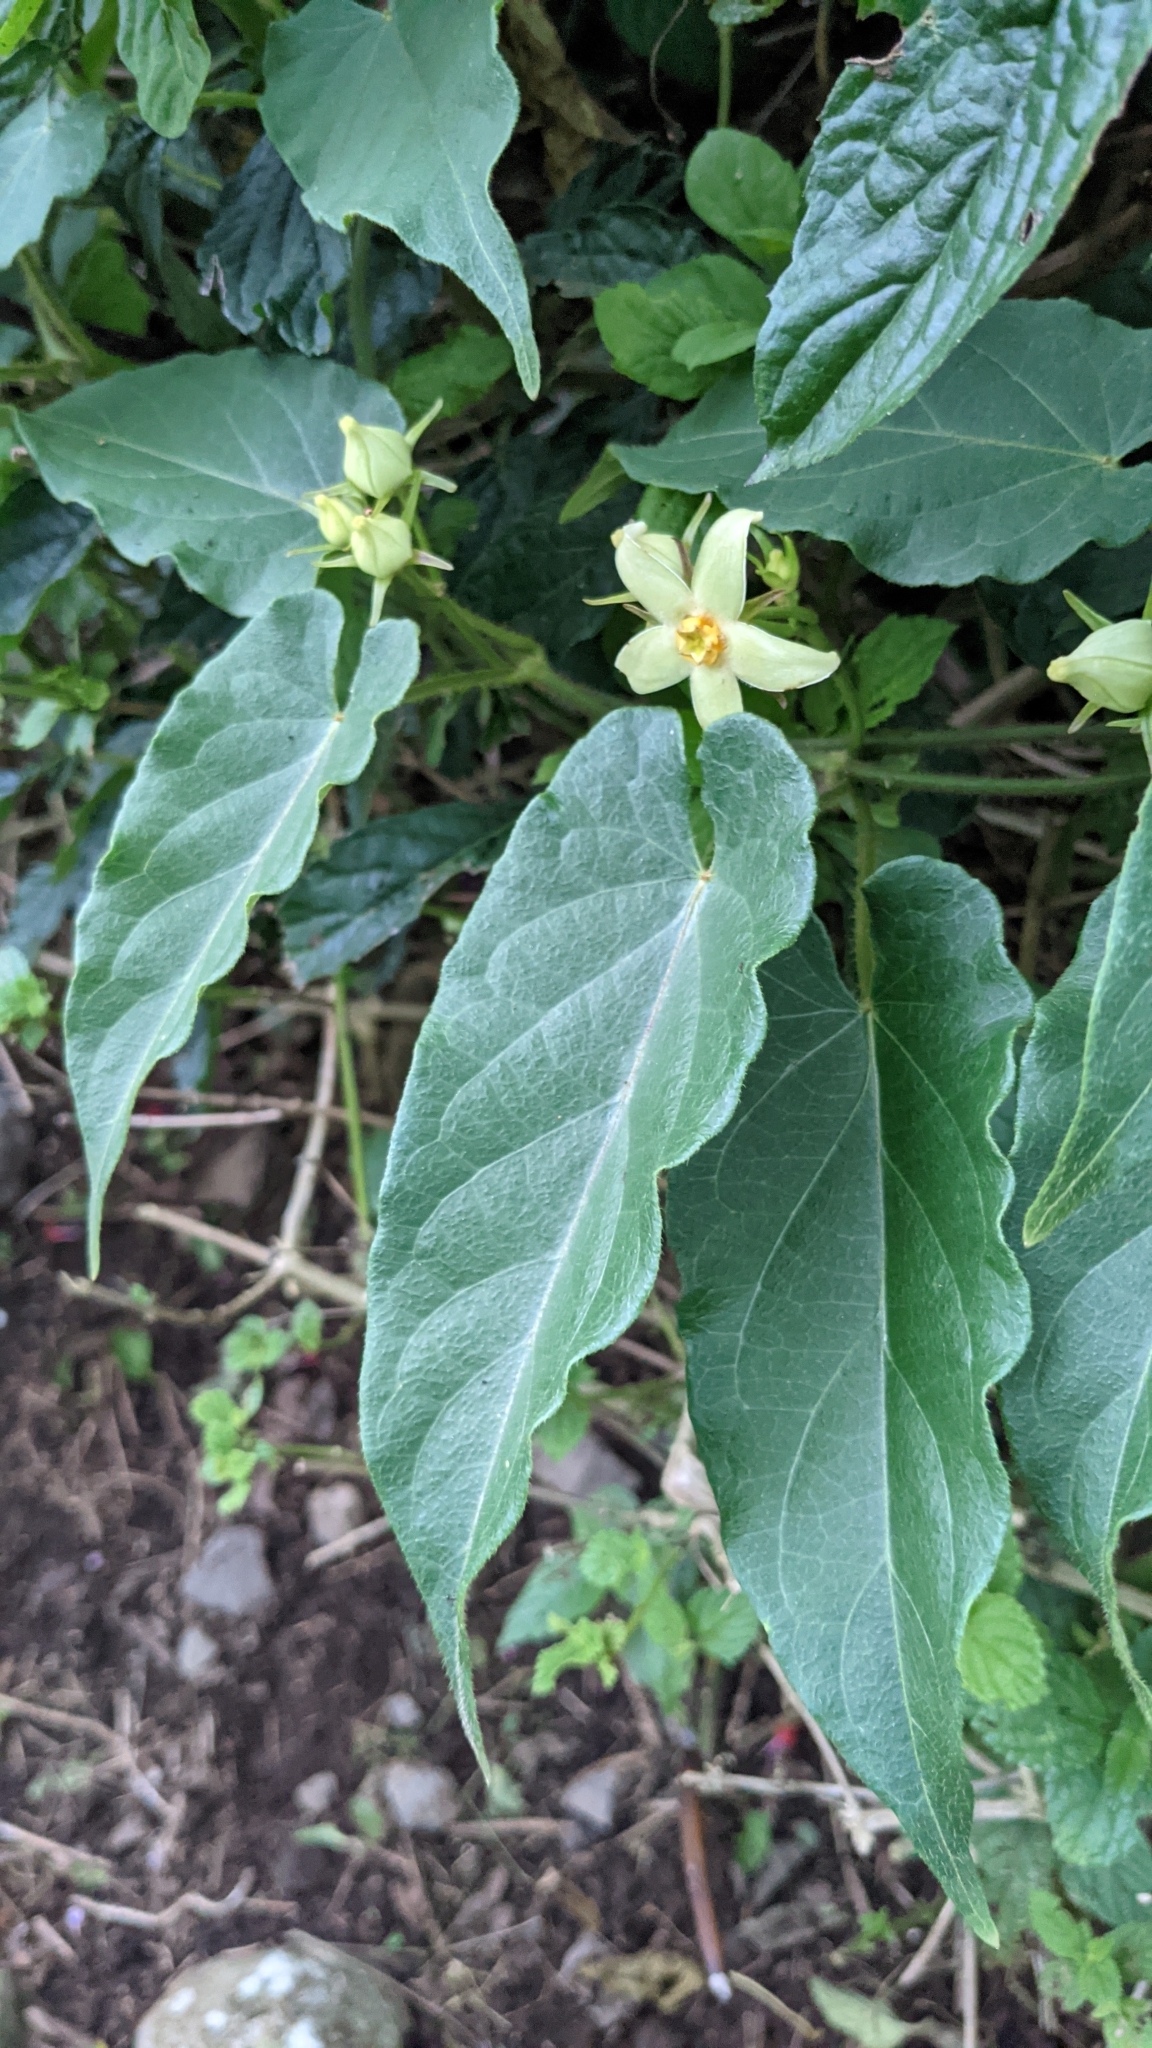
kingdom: Plantae
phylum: Tracheophyta
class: Magnoliopsida
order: Gentianales
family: Apocynaceae
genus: Gonolobus
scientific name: Gonolobus edulis
